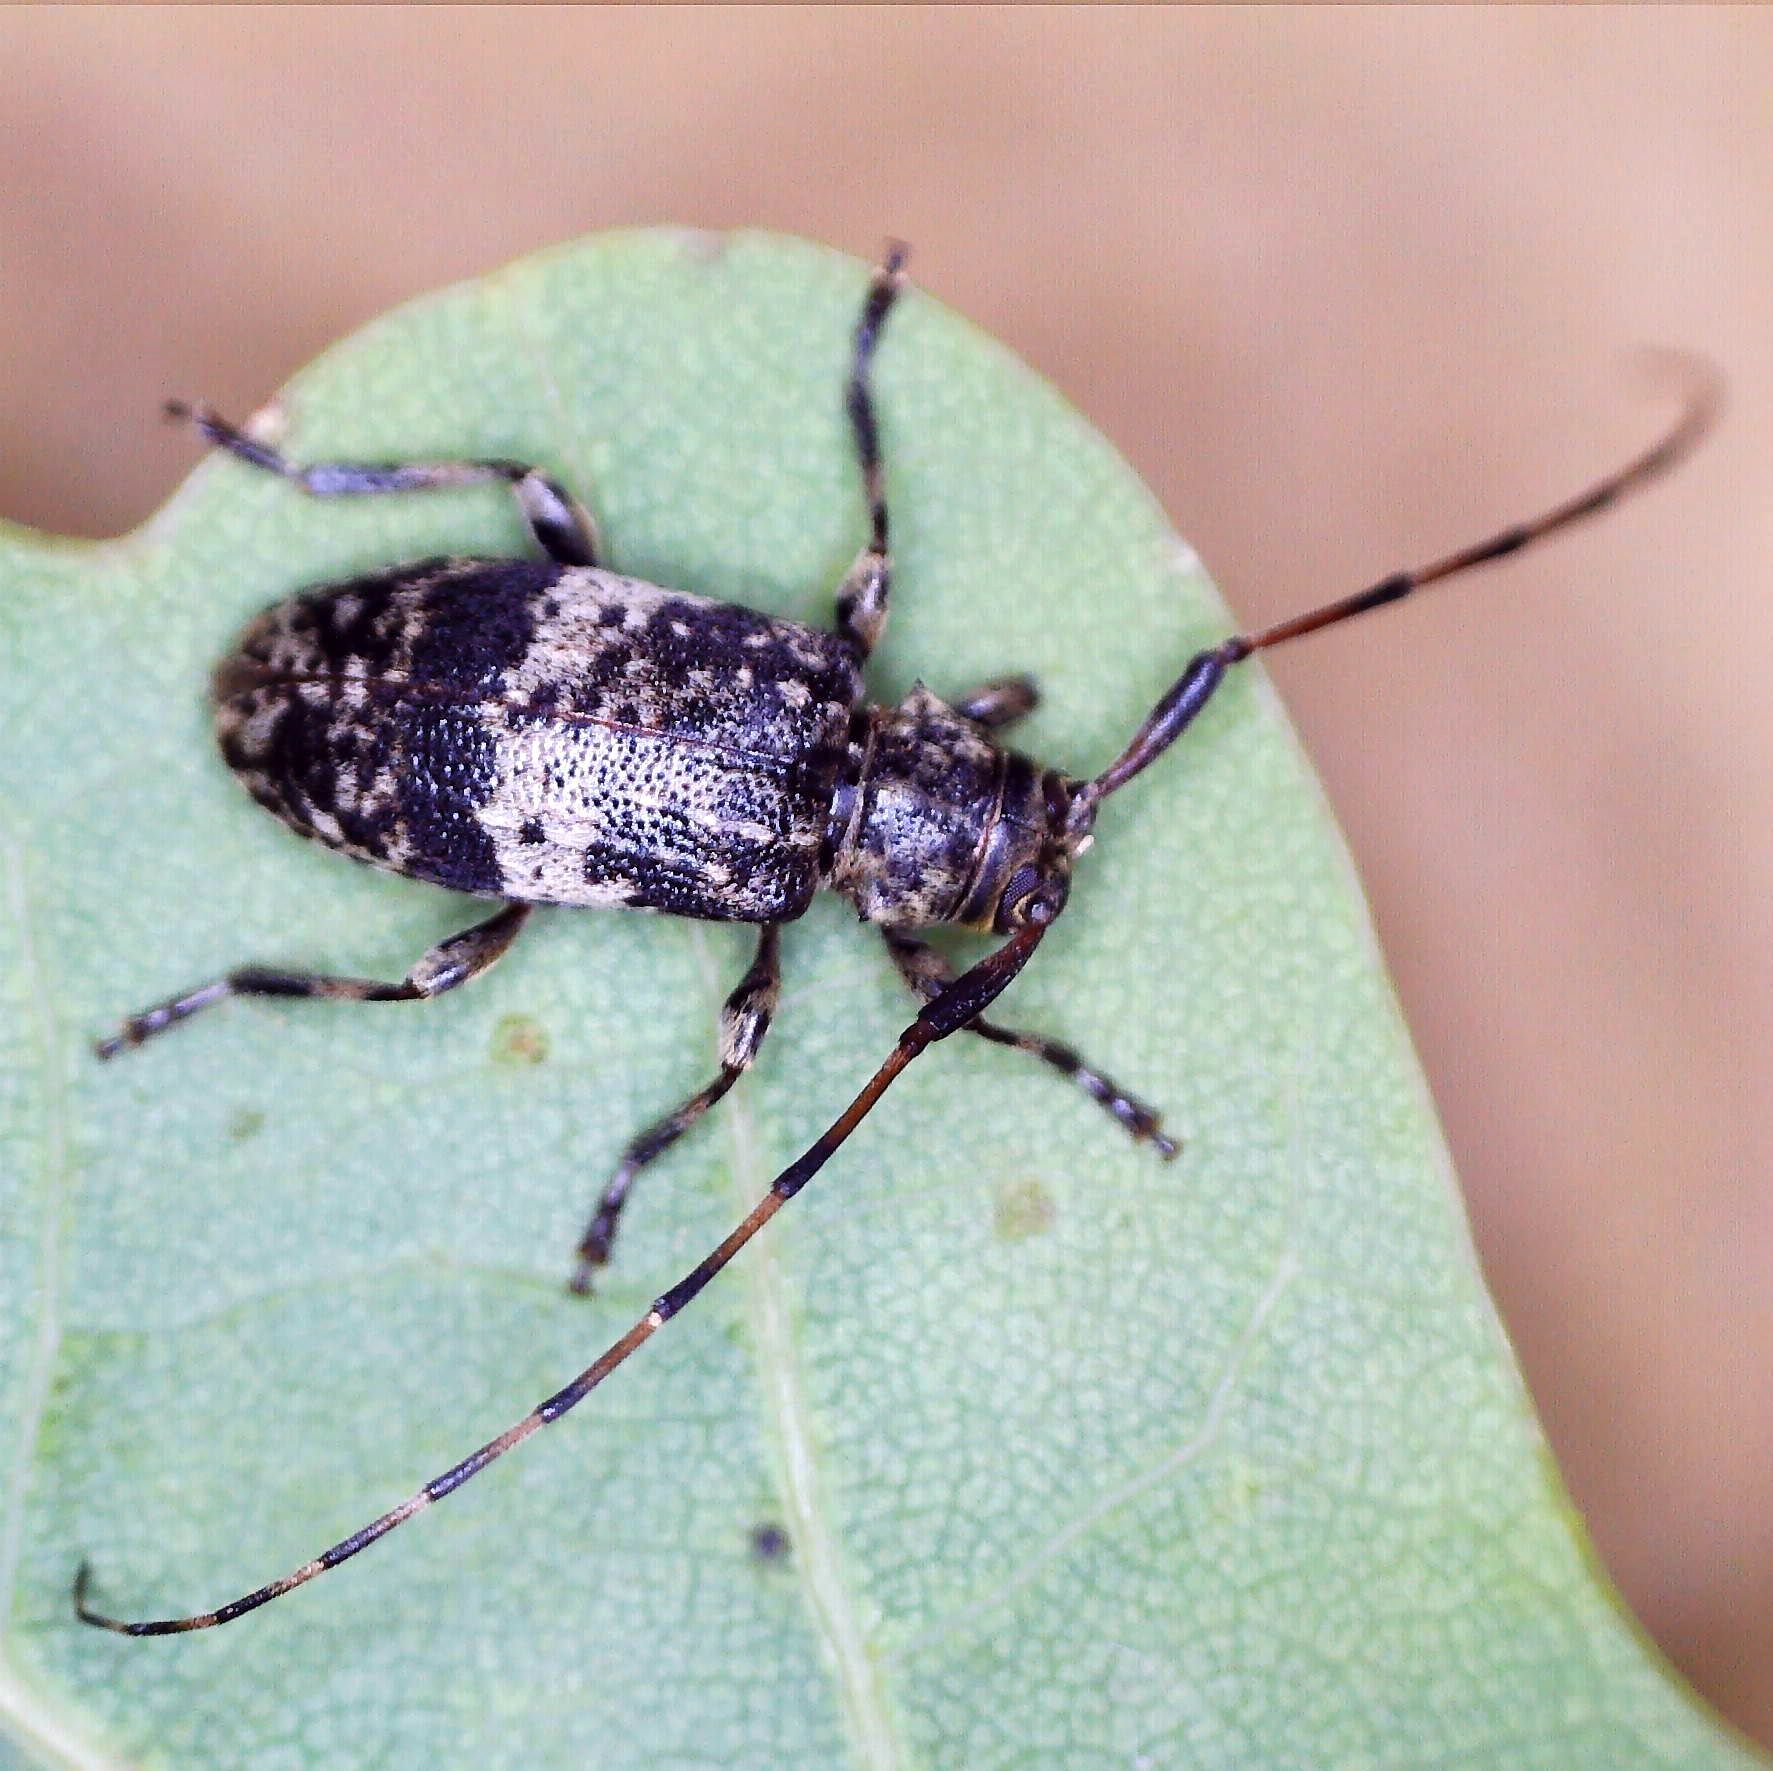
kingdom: Animalia
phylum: Arthropoda
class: Insecta
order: Coleoptera
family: Cerambycidae
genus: Leiopus
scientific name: Leiopus
